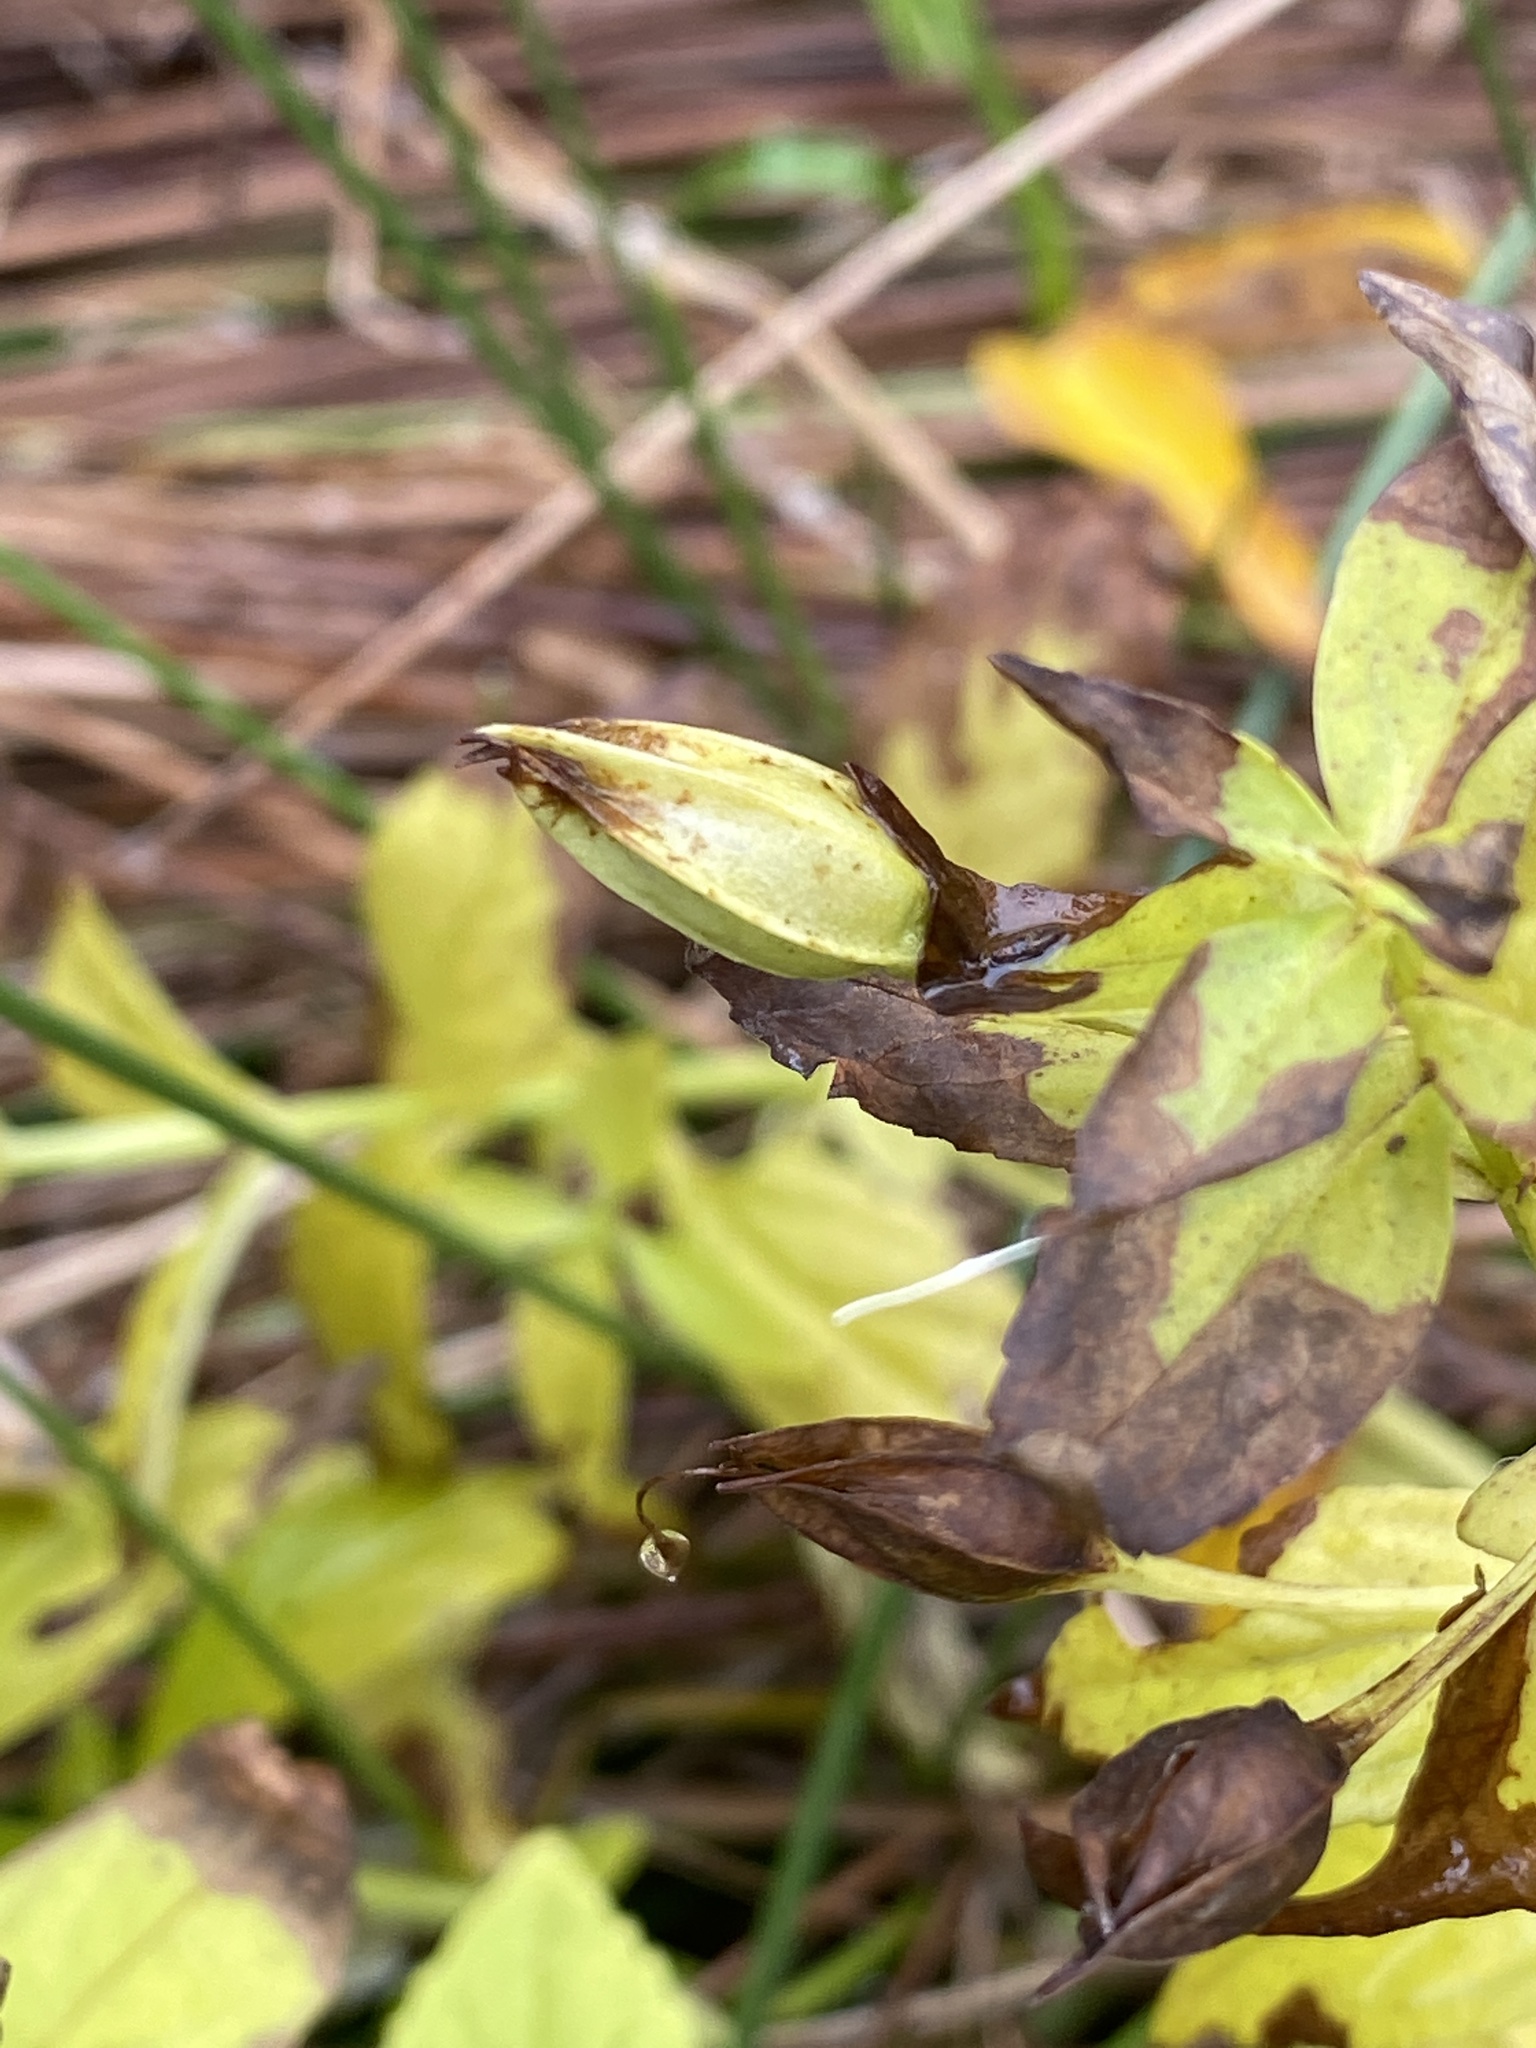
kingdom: Plantae
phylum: Tracheophyta
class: Magnoliopsida
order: Lamiales
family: Phrymaceae
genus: Mimulus
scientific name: Mimulus ringens
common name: Allegheny monkeyflower
